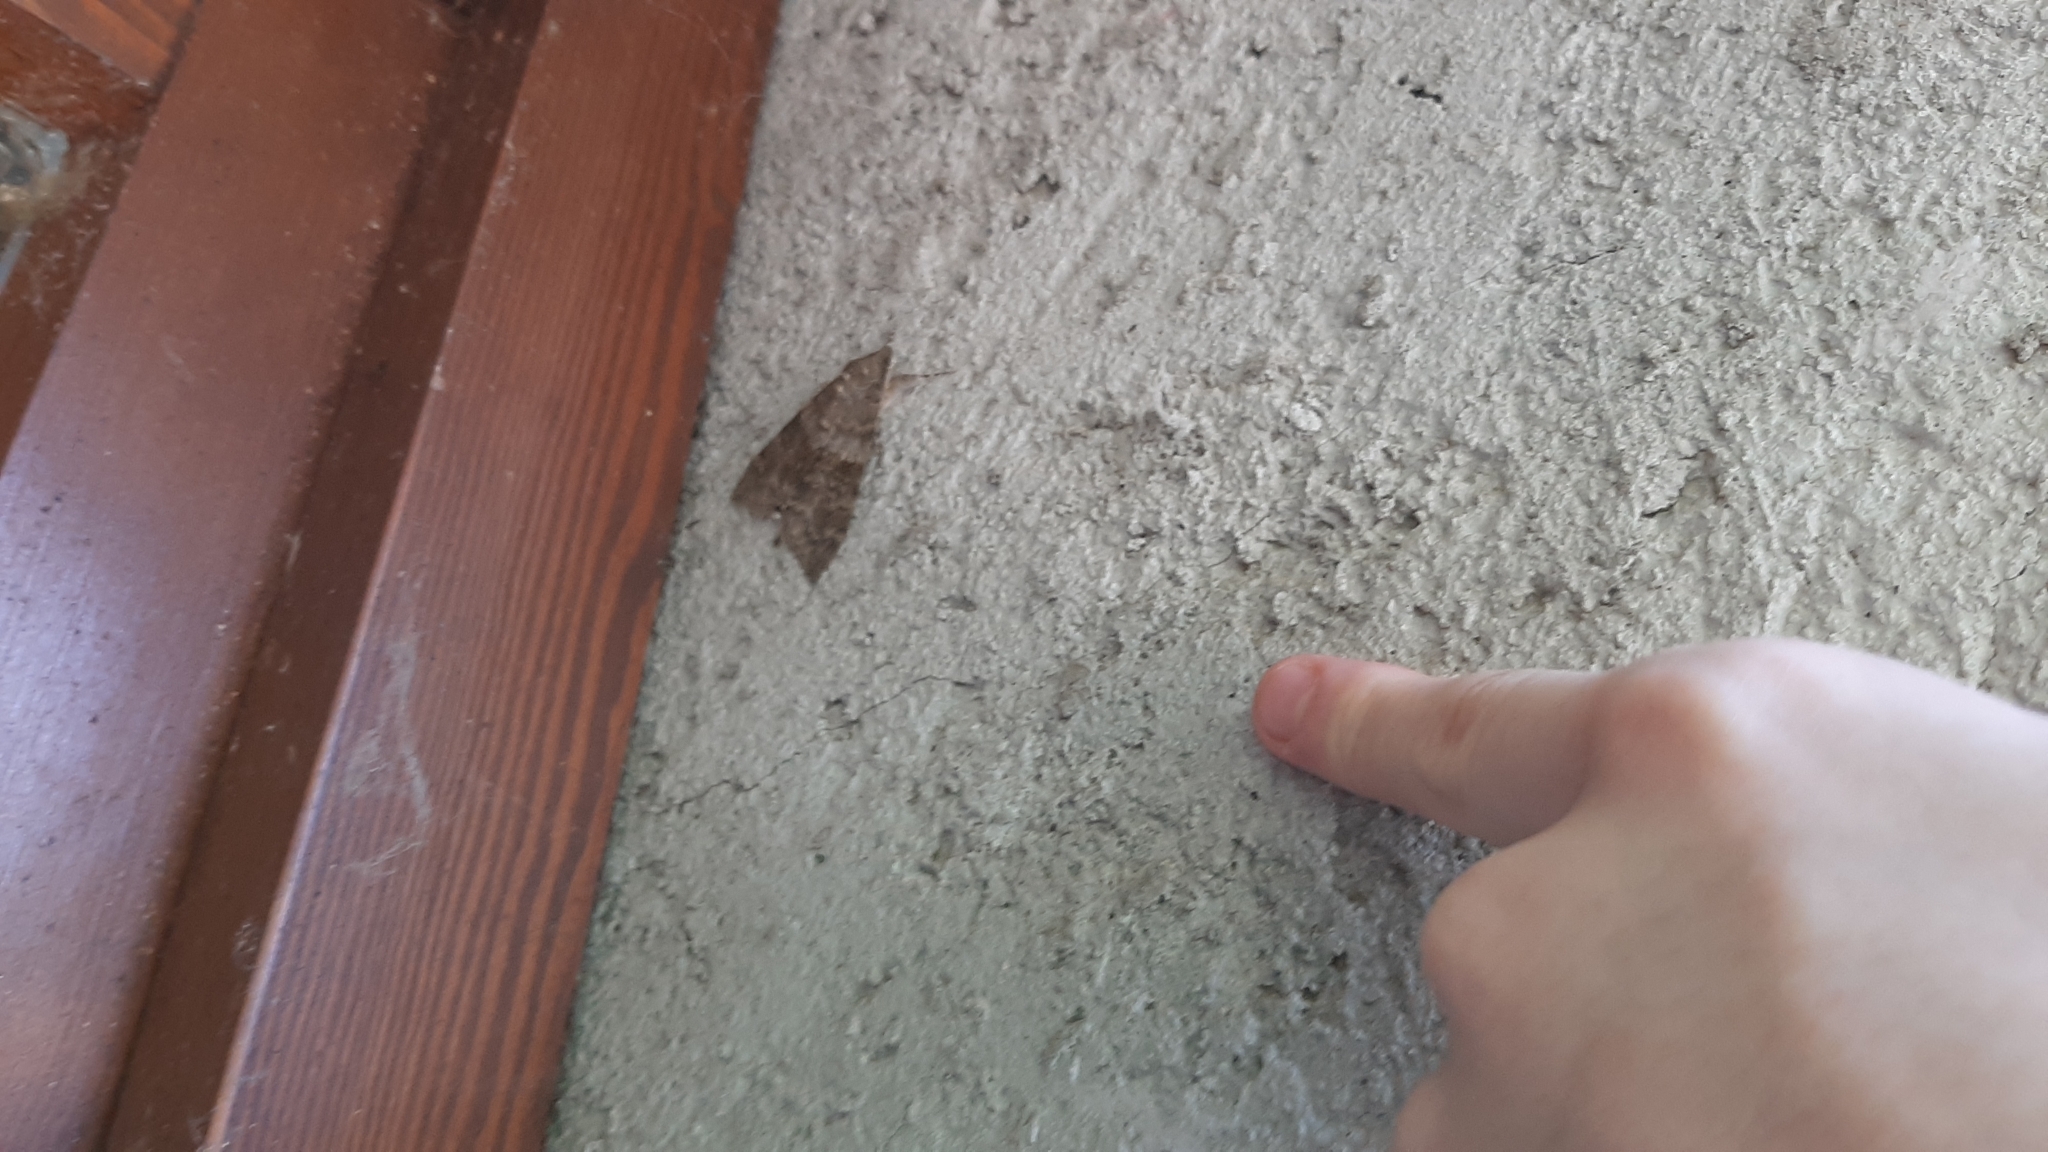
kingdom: Animalia
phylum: Arthropoda
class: Insecta
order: Lepidoptera
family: Erebidae
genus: Catocala
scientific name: Catocala nupta
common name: Red underwing
